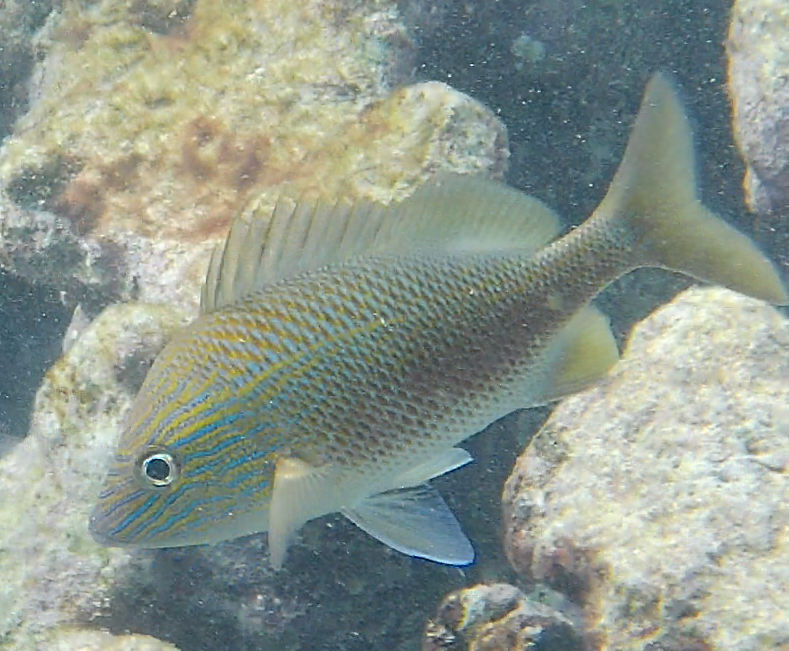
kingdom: Animalia
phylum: Chordata
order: Perciformes
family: Haemulidae
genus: Haemulon
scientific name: Haemulon plumierii
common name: White grunt
